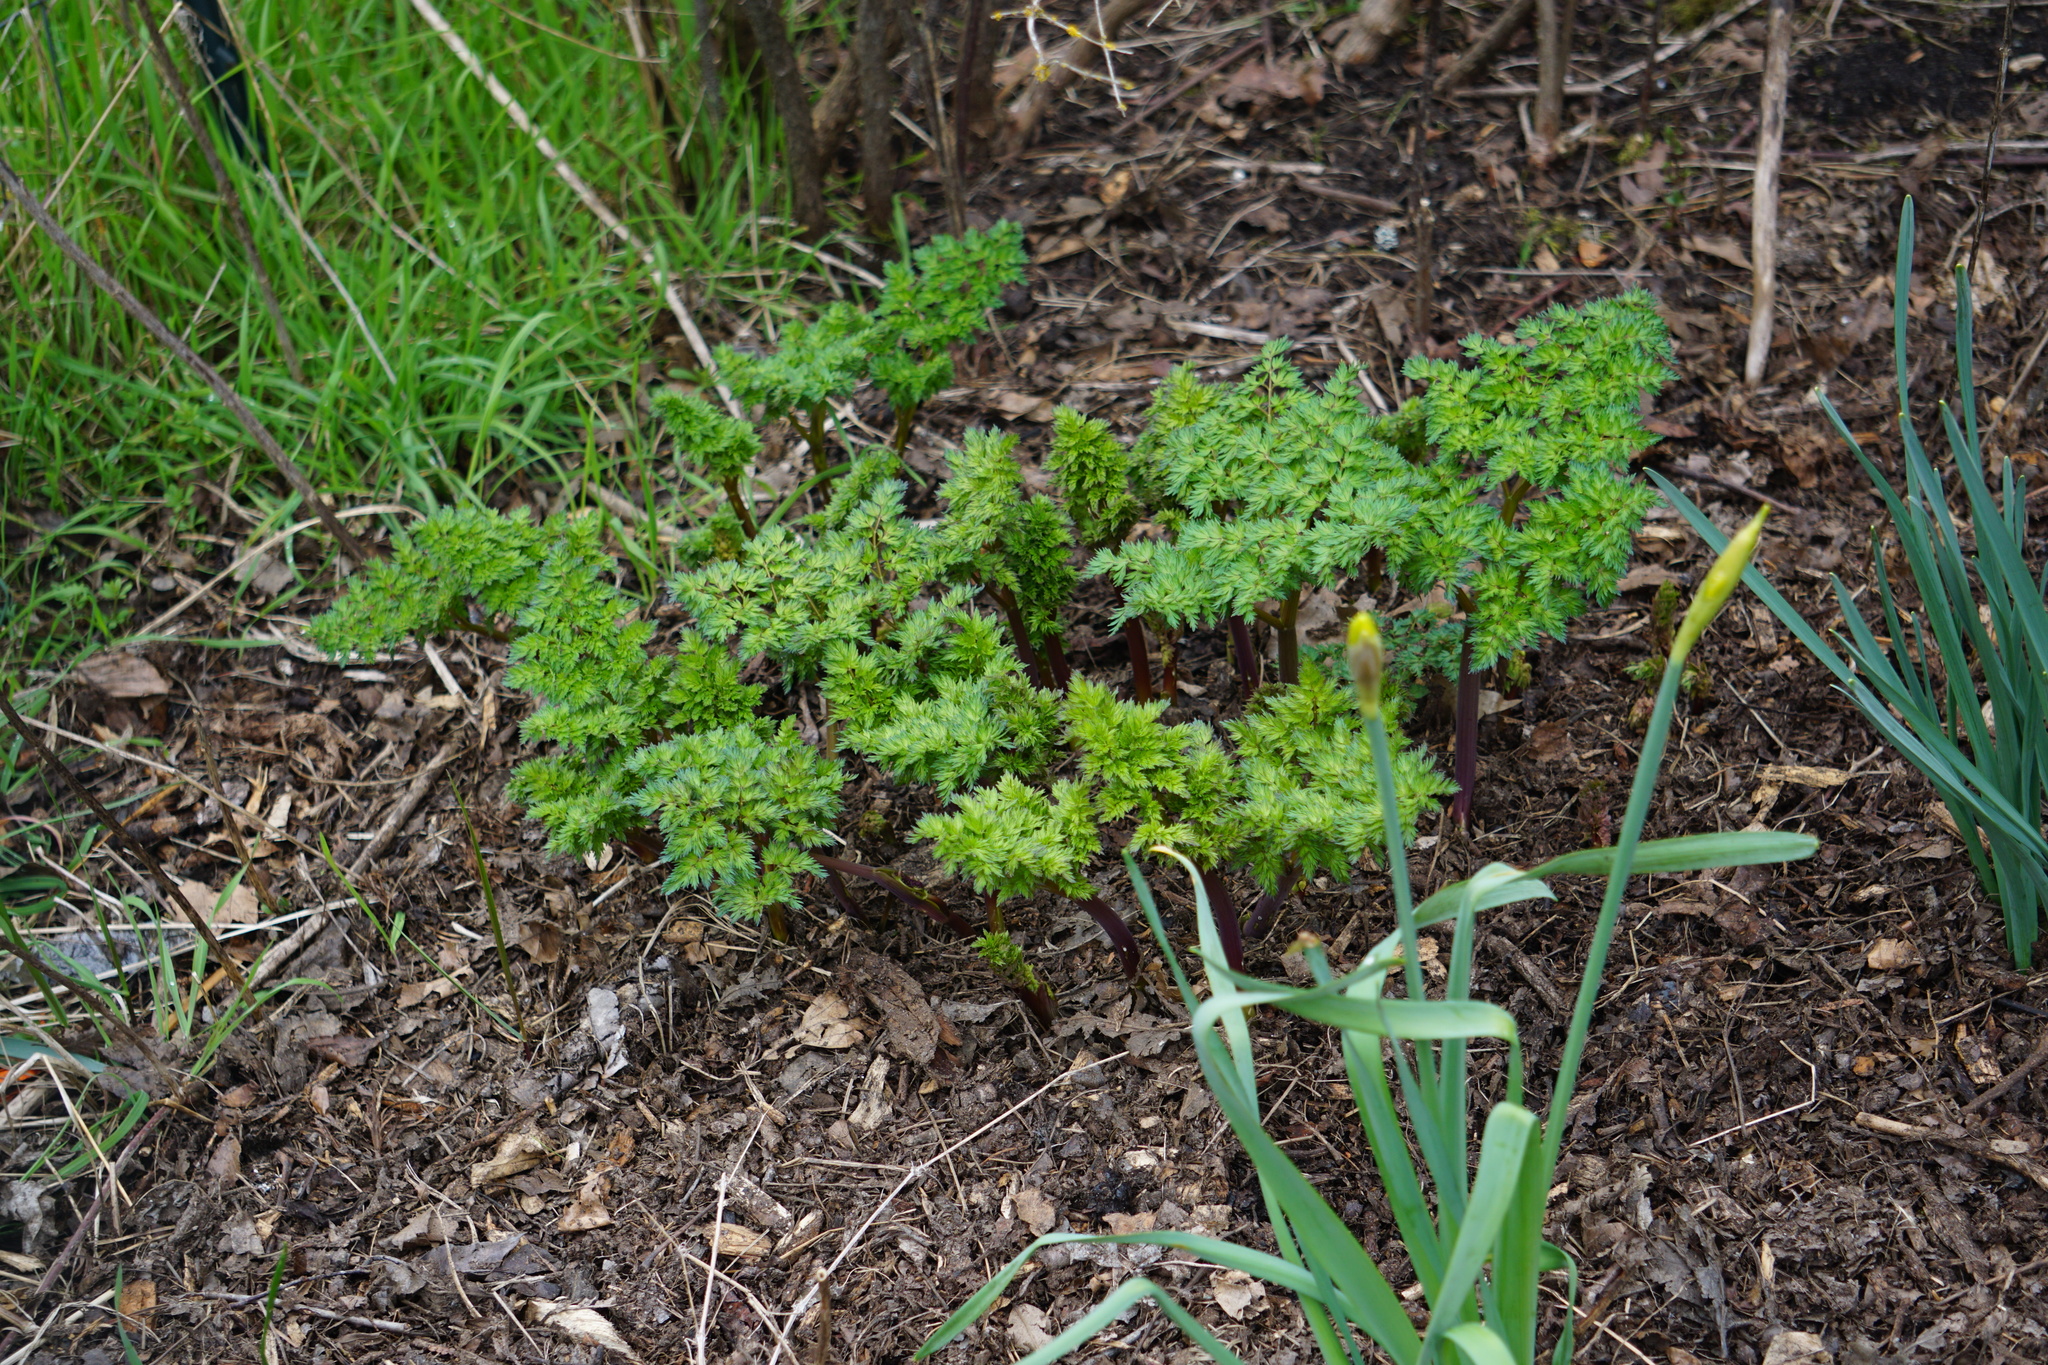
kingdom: Plantae
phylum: Tracheophyta
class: Magnoliopsida
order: Apiales
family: Apiaceae
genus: Lomatium
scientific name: Lomatium dissectum
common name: Lomatium
